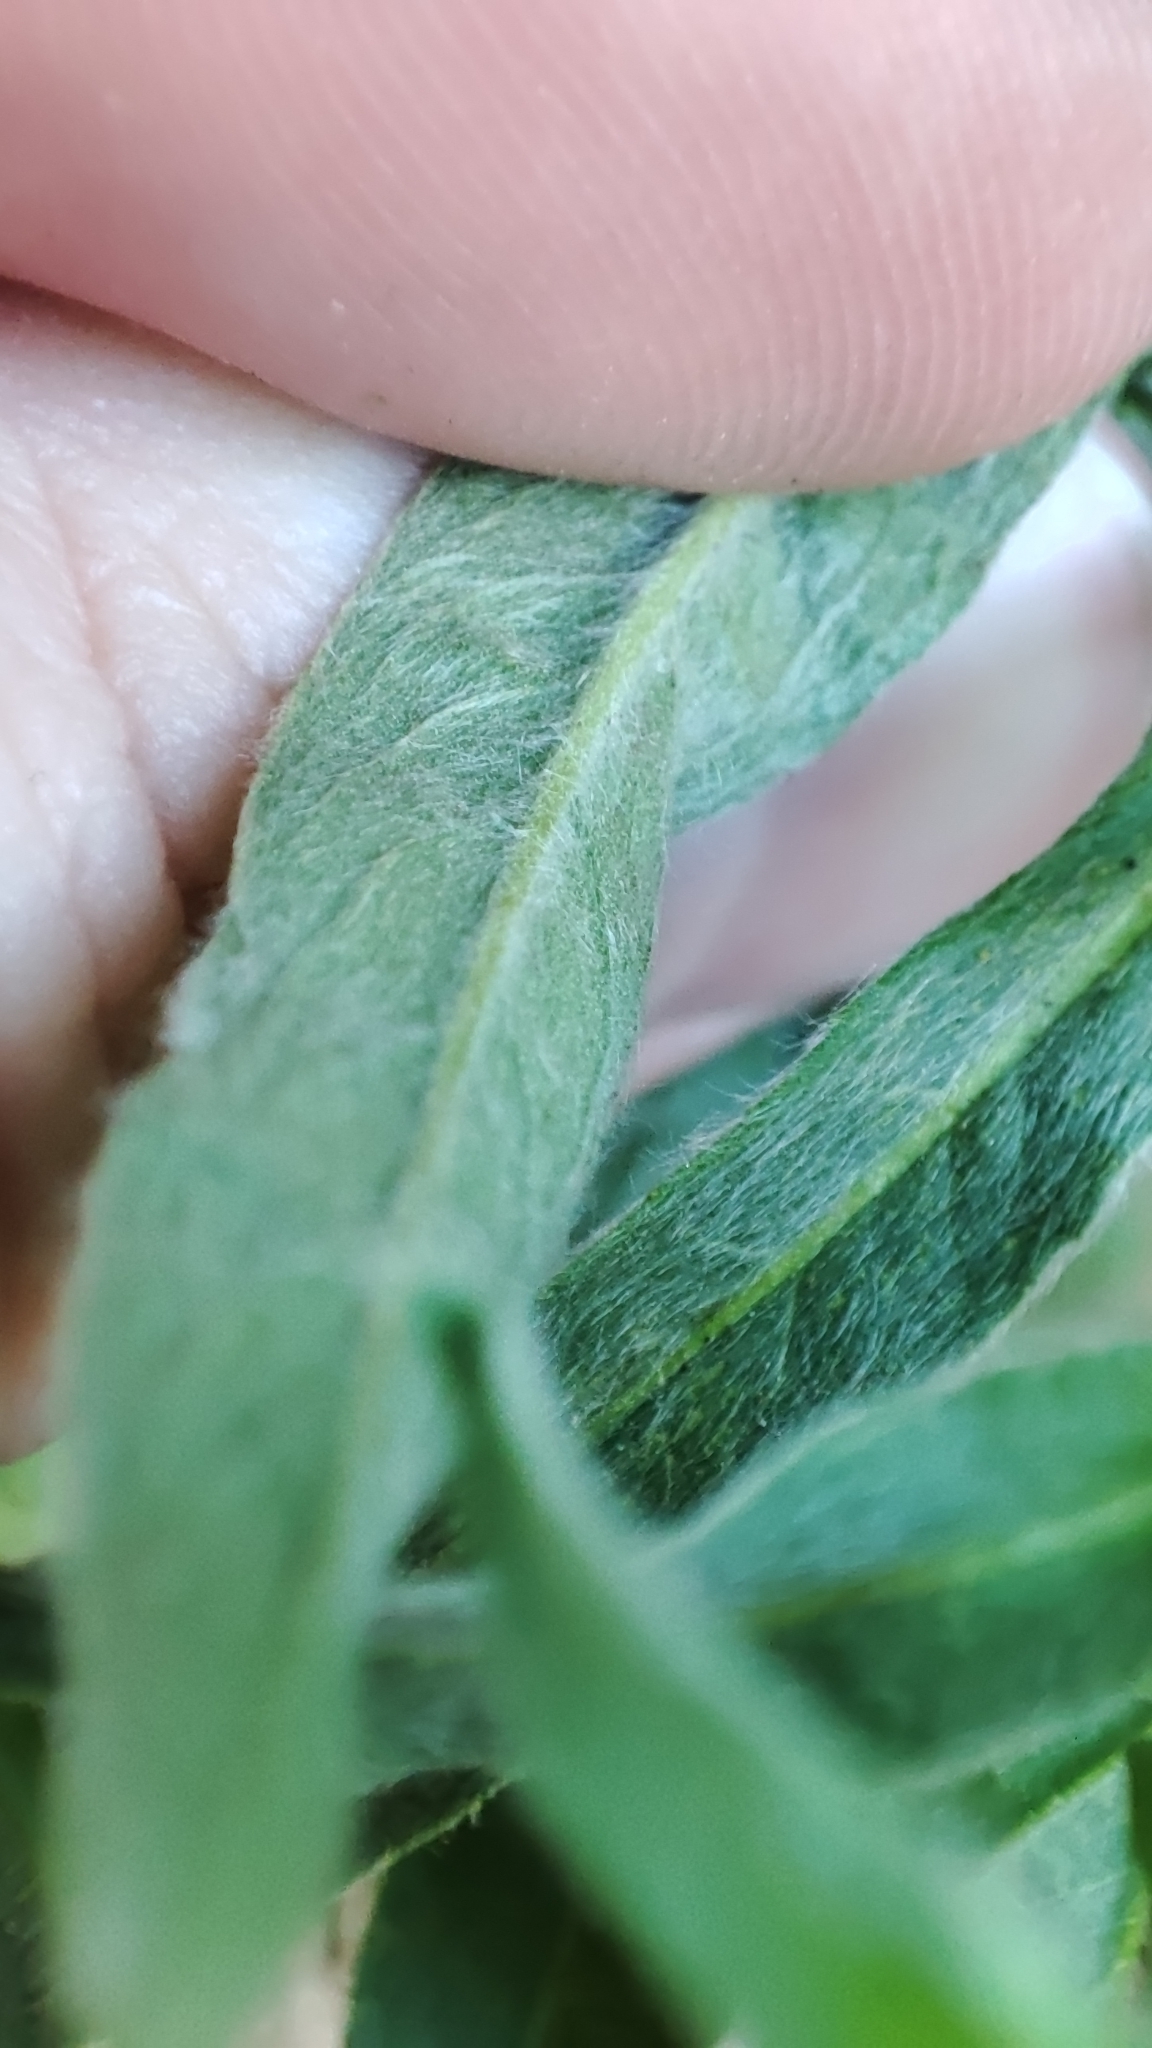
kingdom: Plantae
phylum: Tracheophyta
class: Magnoliopsida
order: Asterales
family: Asteraceae
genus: Pentanema
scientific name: Pentanema britannicum
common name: British elecampane
